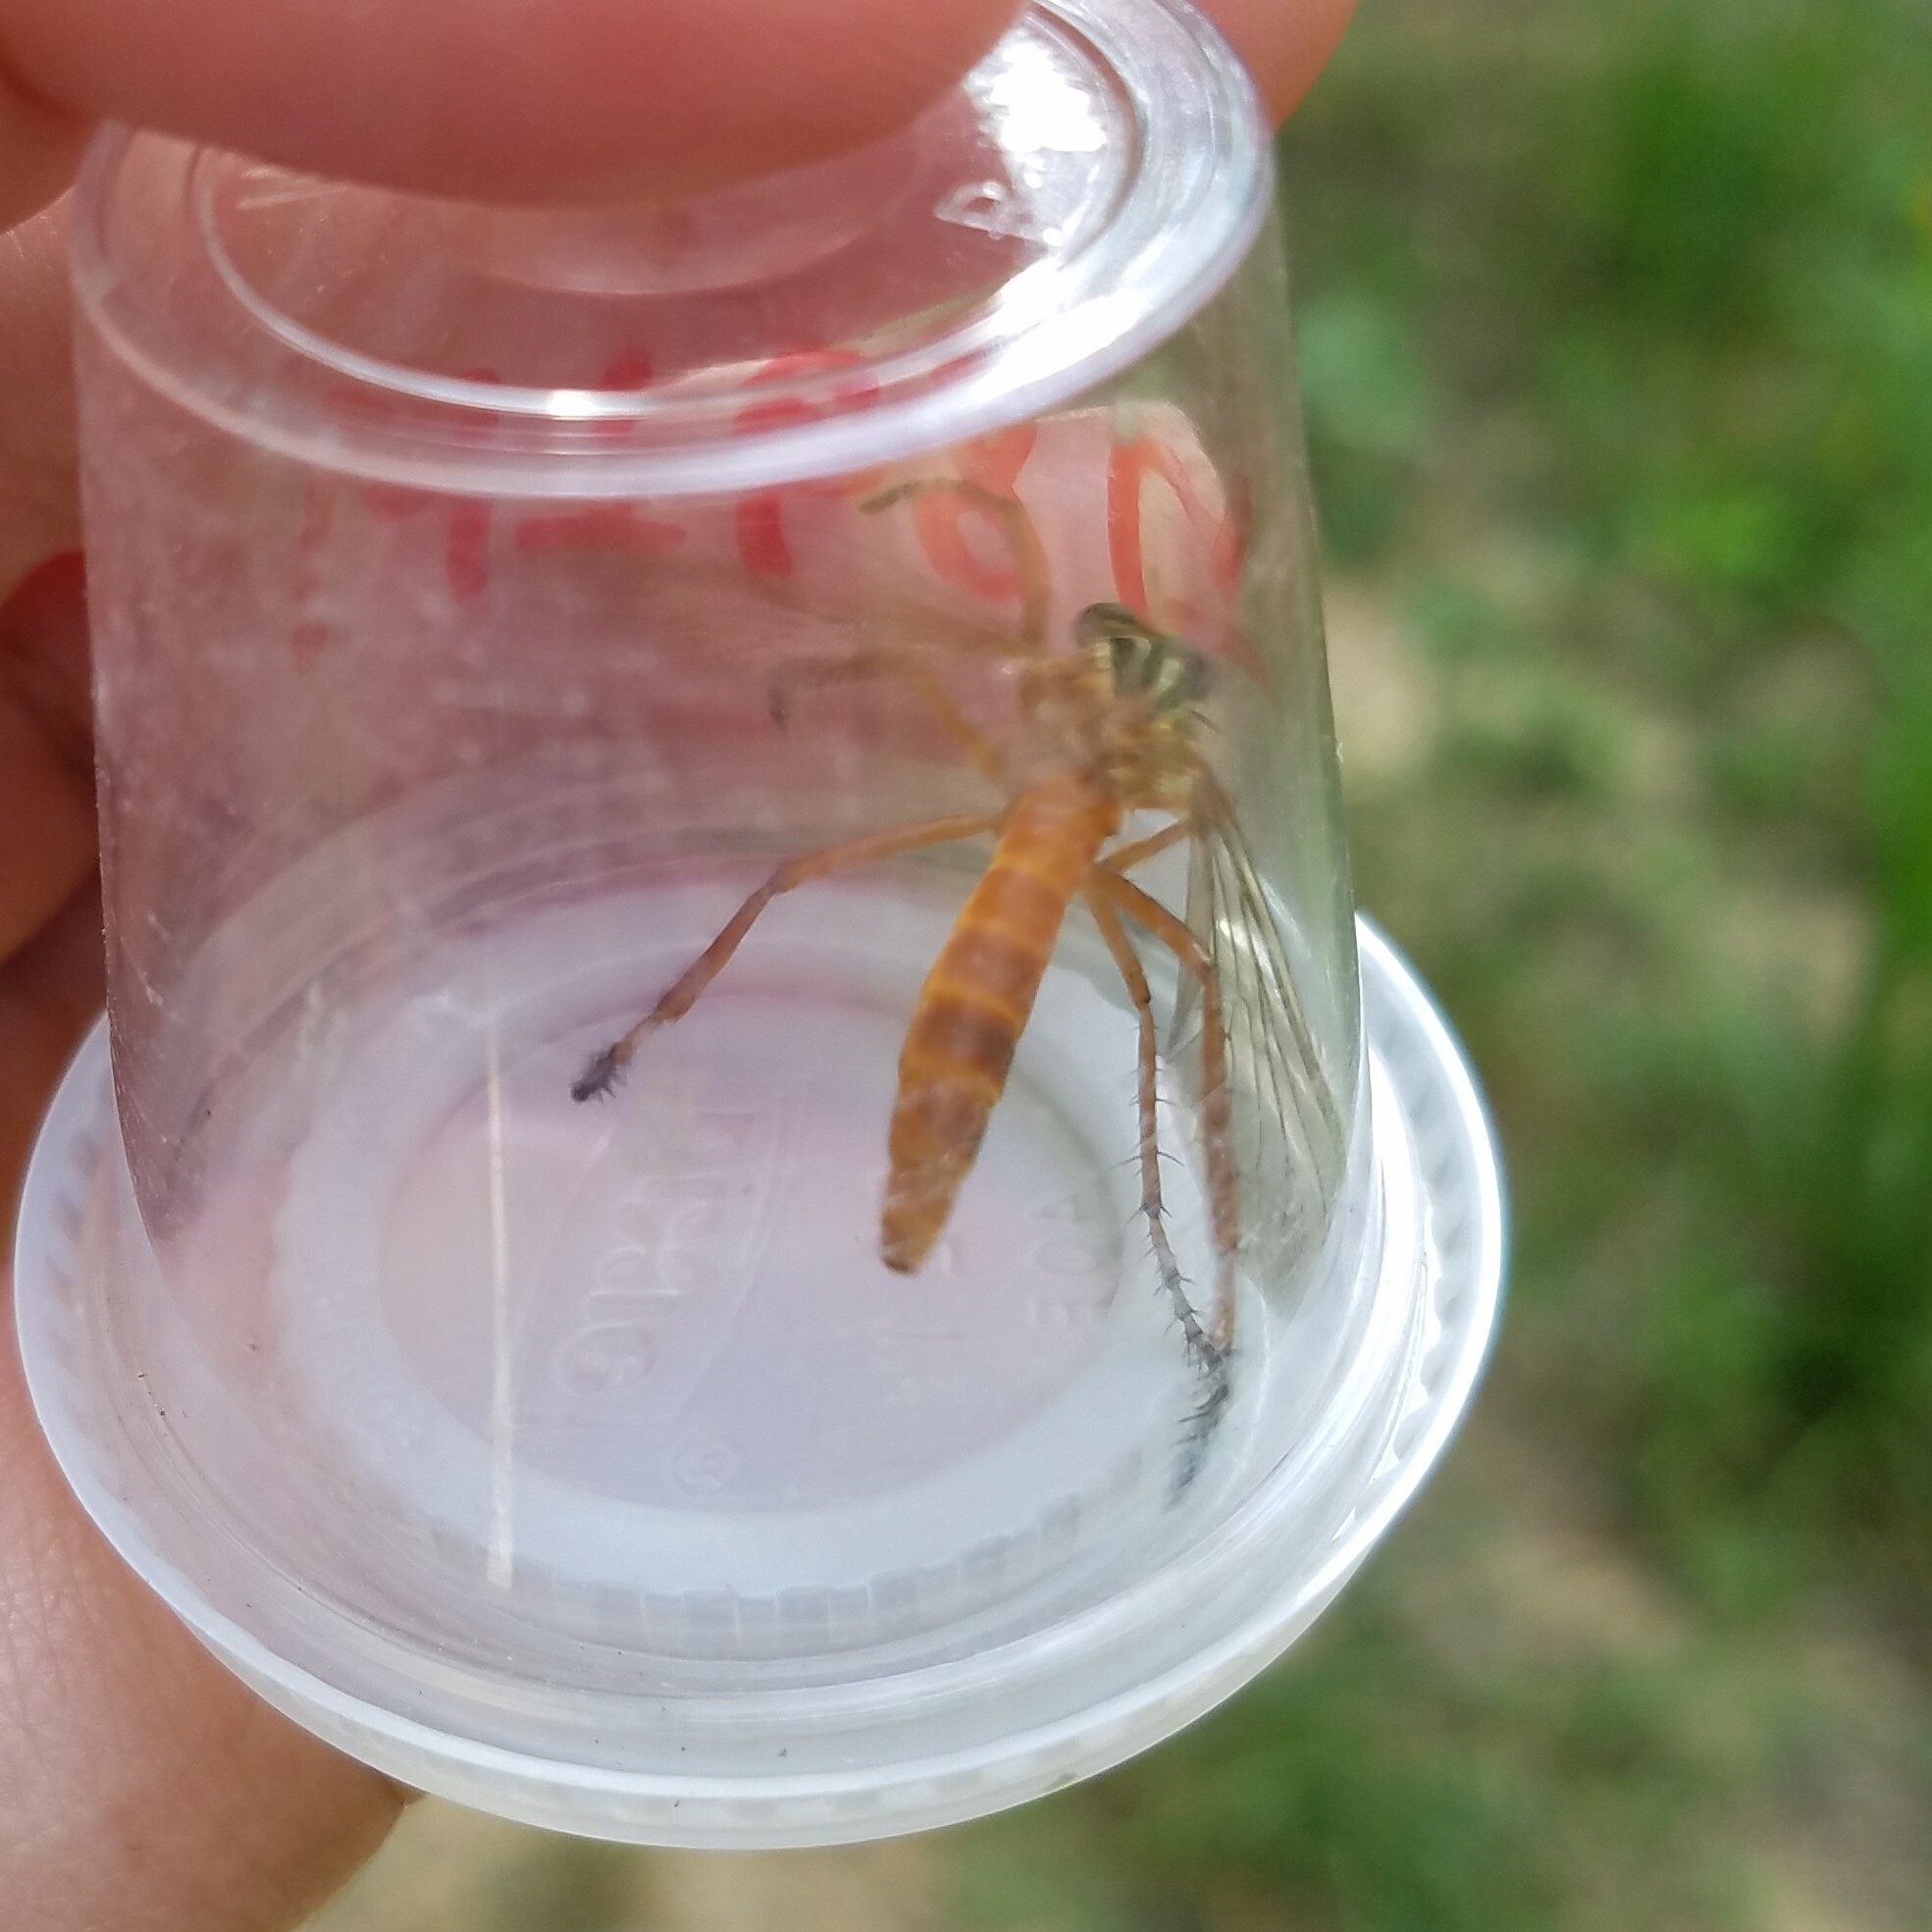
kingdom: Animalia
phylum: Arthropoda
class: Insecta
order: Diptera
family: Asilidae
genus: Diogmites
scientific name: Diogmites neoternatus
